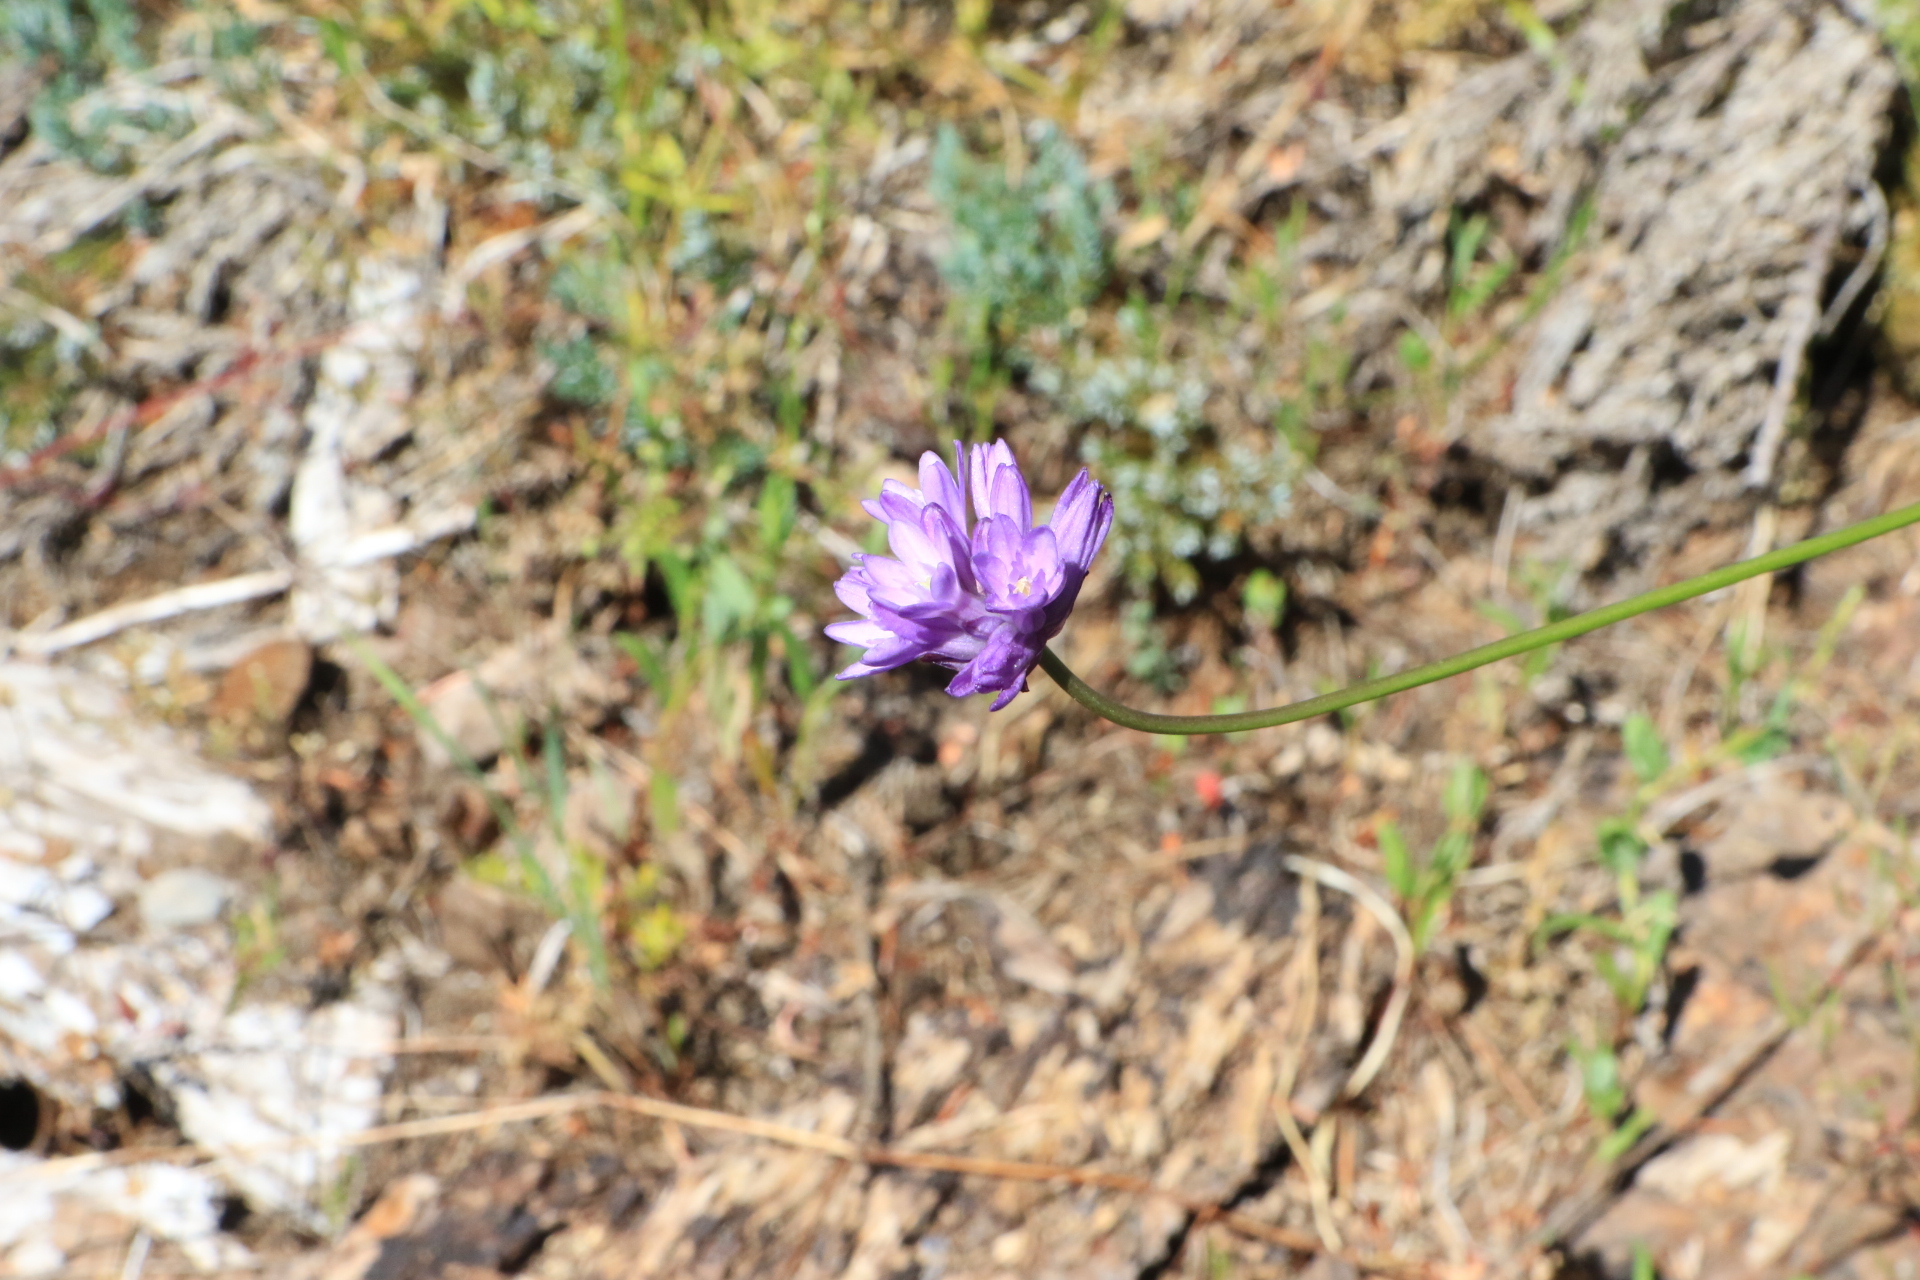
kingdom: Plantae
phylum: Tracheophyta
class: Liliopsida
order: Asparagales
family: Asparagaceae
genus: Dichelostemma
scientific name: Dichelostemma congestum
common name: Fork-tooth ookow
